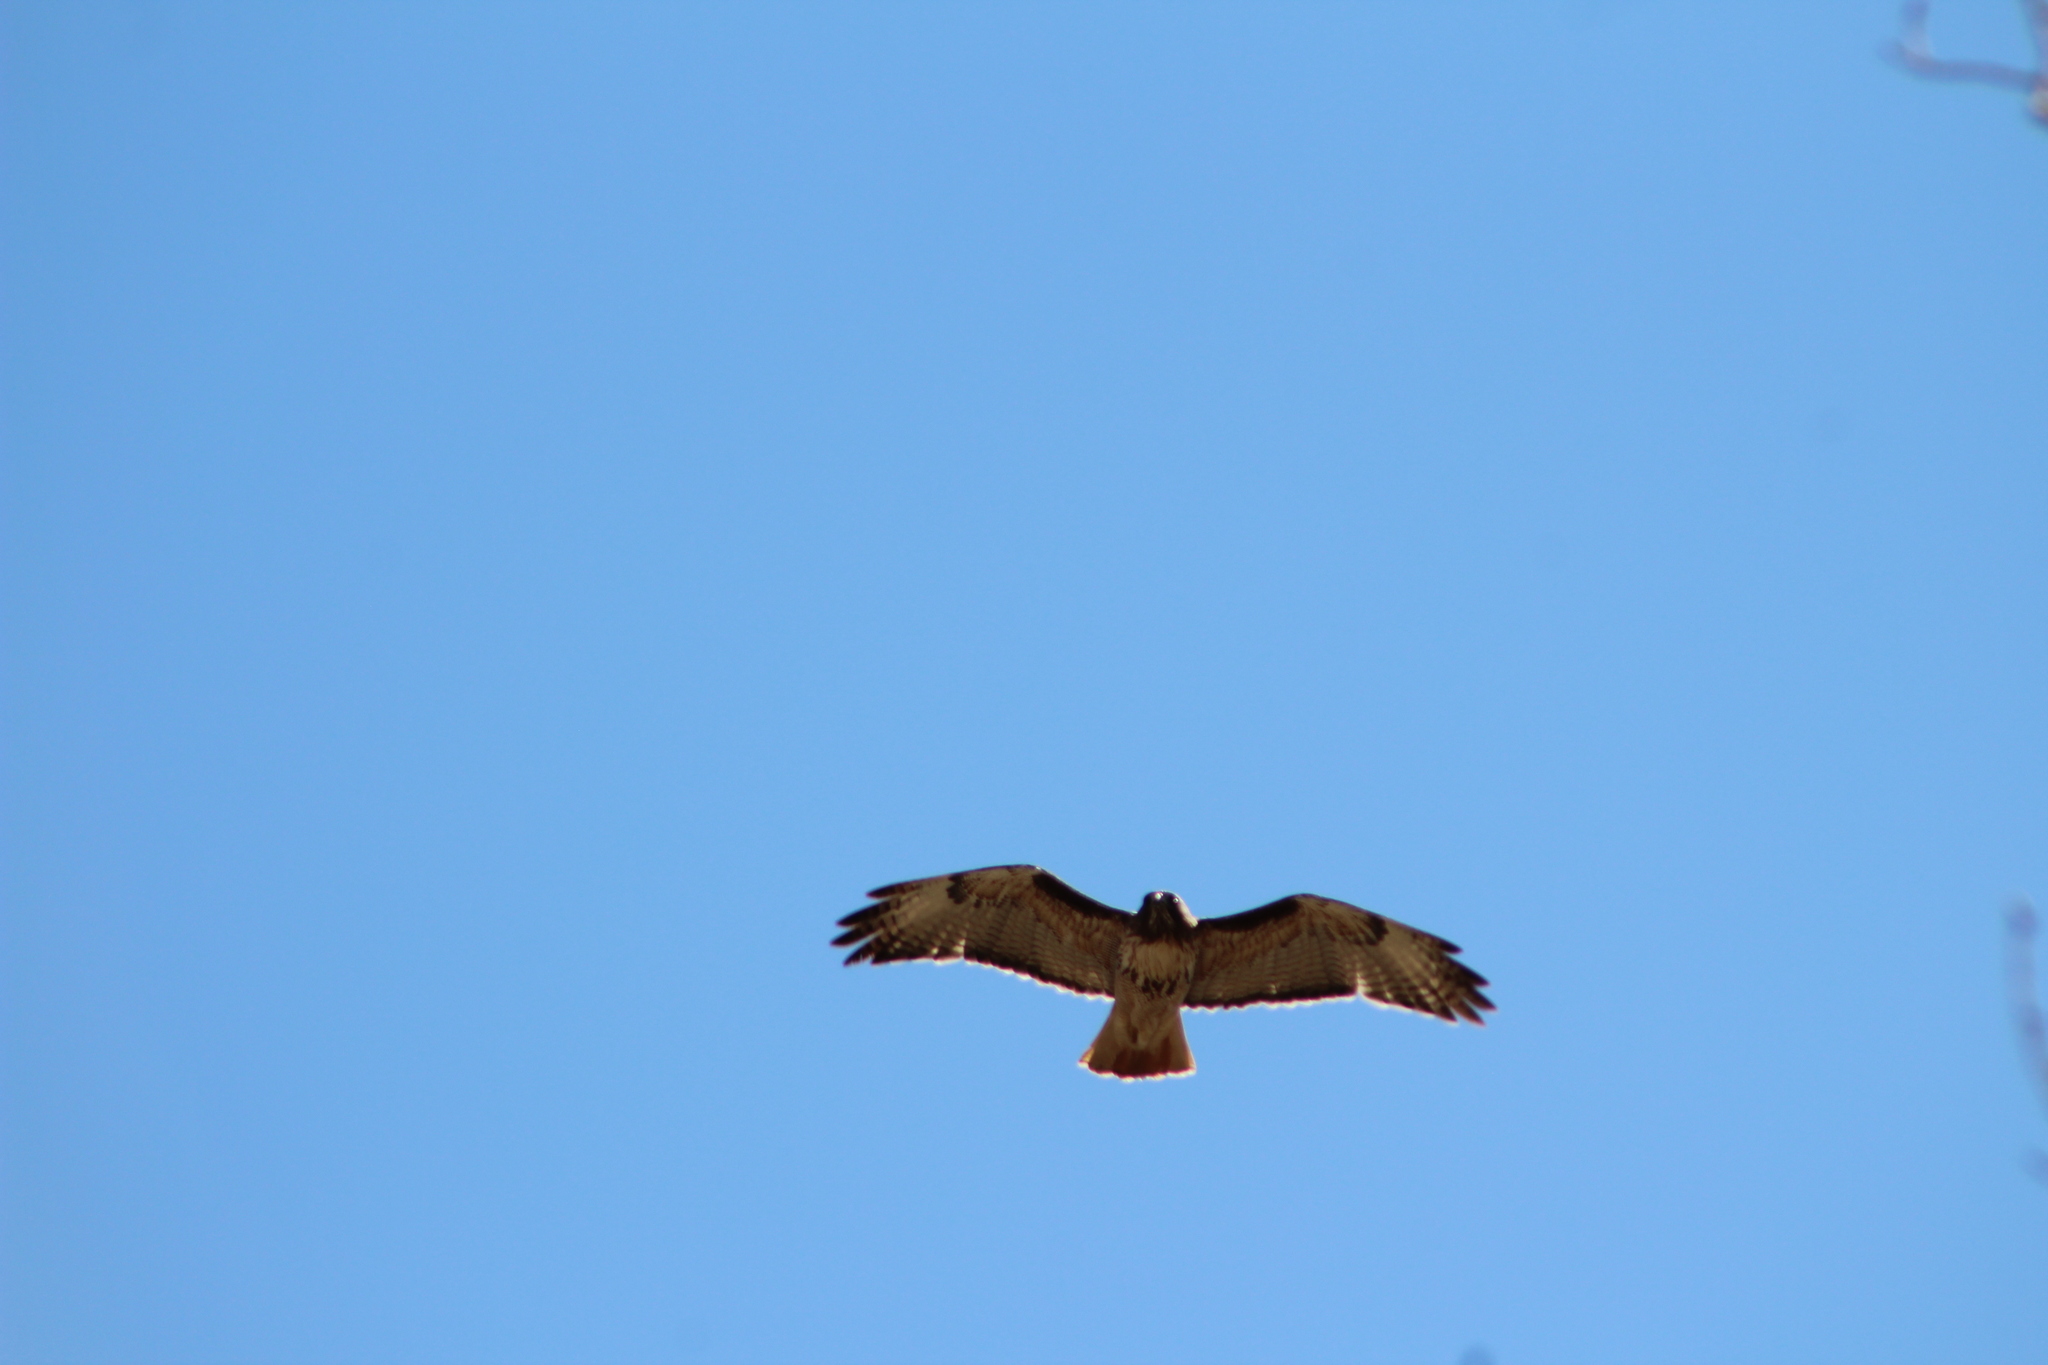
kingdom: Animalia
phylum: Chordata
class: Aves
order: Accipitriformes
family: Accipitridae
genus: Buteo
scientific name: Buteo jamaicensis
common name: Red-tailed hawk
